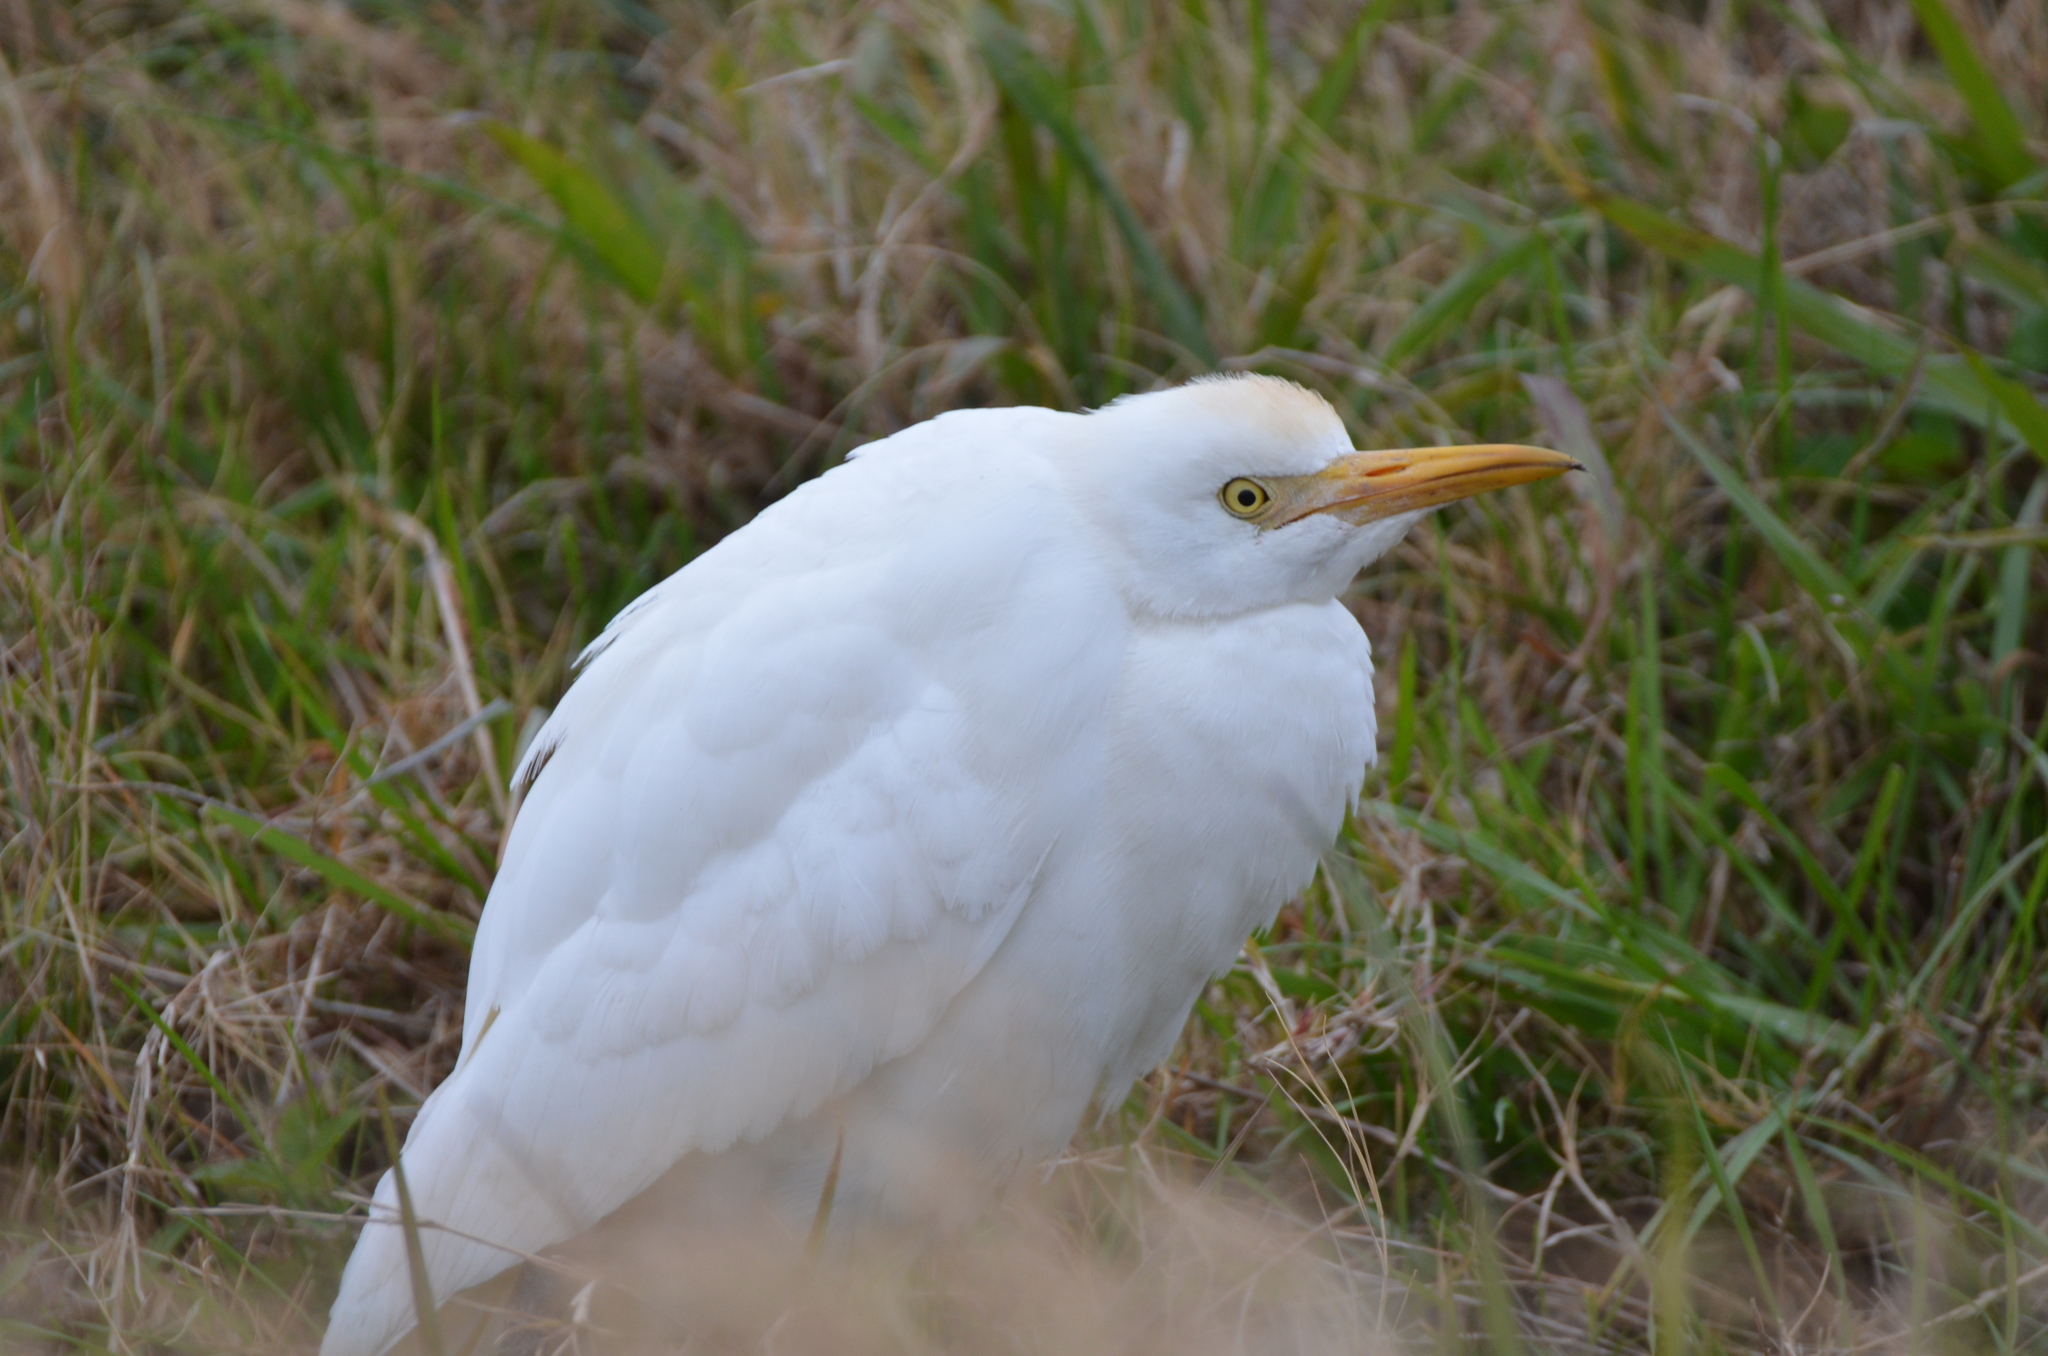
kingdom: Animalia
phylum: Chordata
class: Aves
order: Pelecaniformes
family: Ardeidae
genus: Bubulcus
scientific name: Bubulcus ibis
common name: Cattle egret
